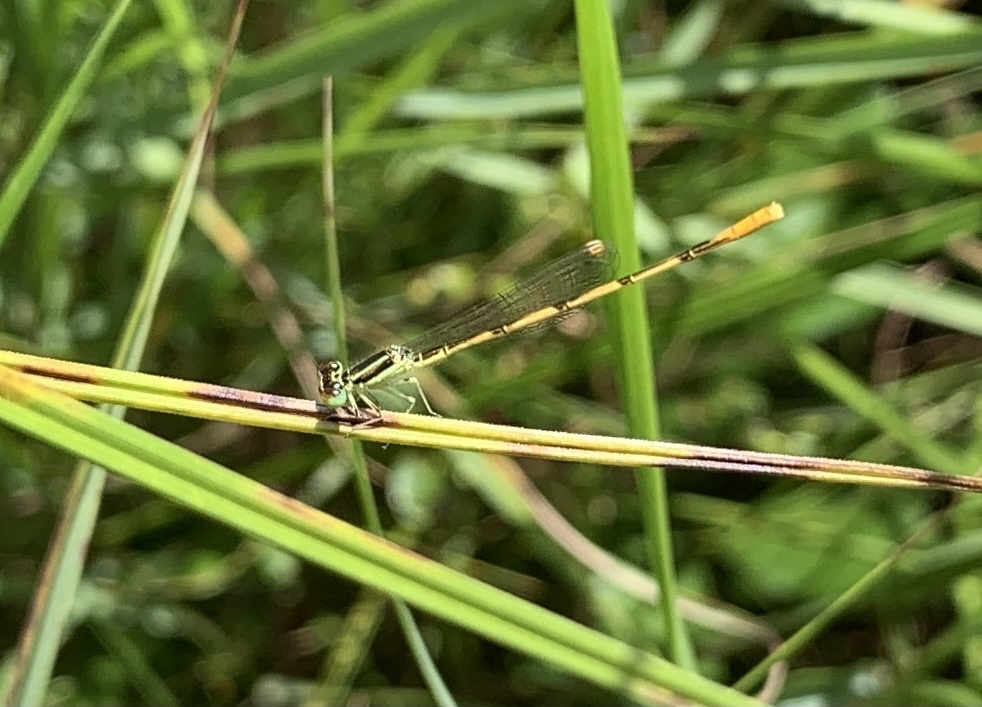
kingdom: Animalia
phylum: Arthropoda
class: Insecta
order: Odonata
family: Coenagrionidae
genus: Ischnura
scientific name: Ischnura hastata
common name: Citrine forktail
